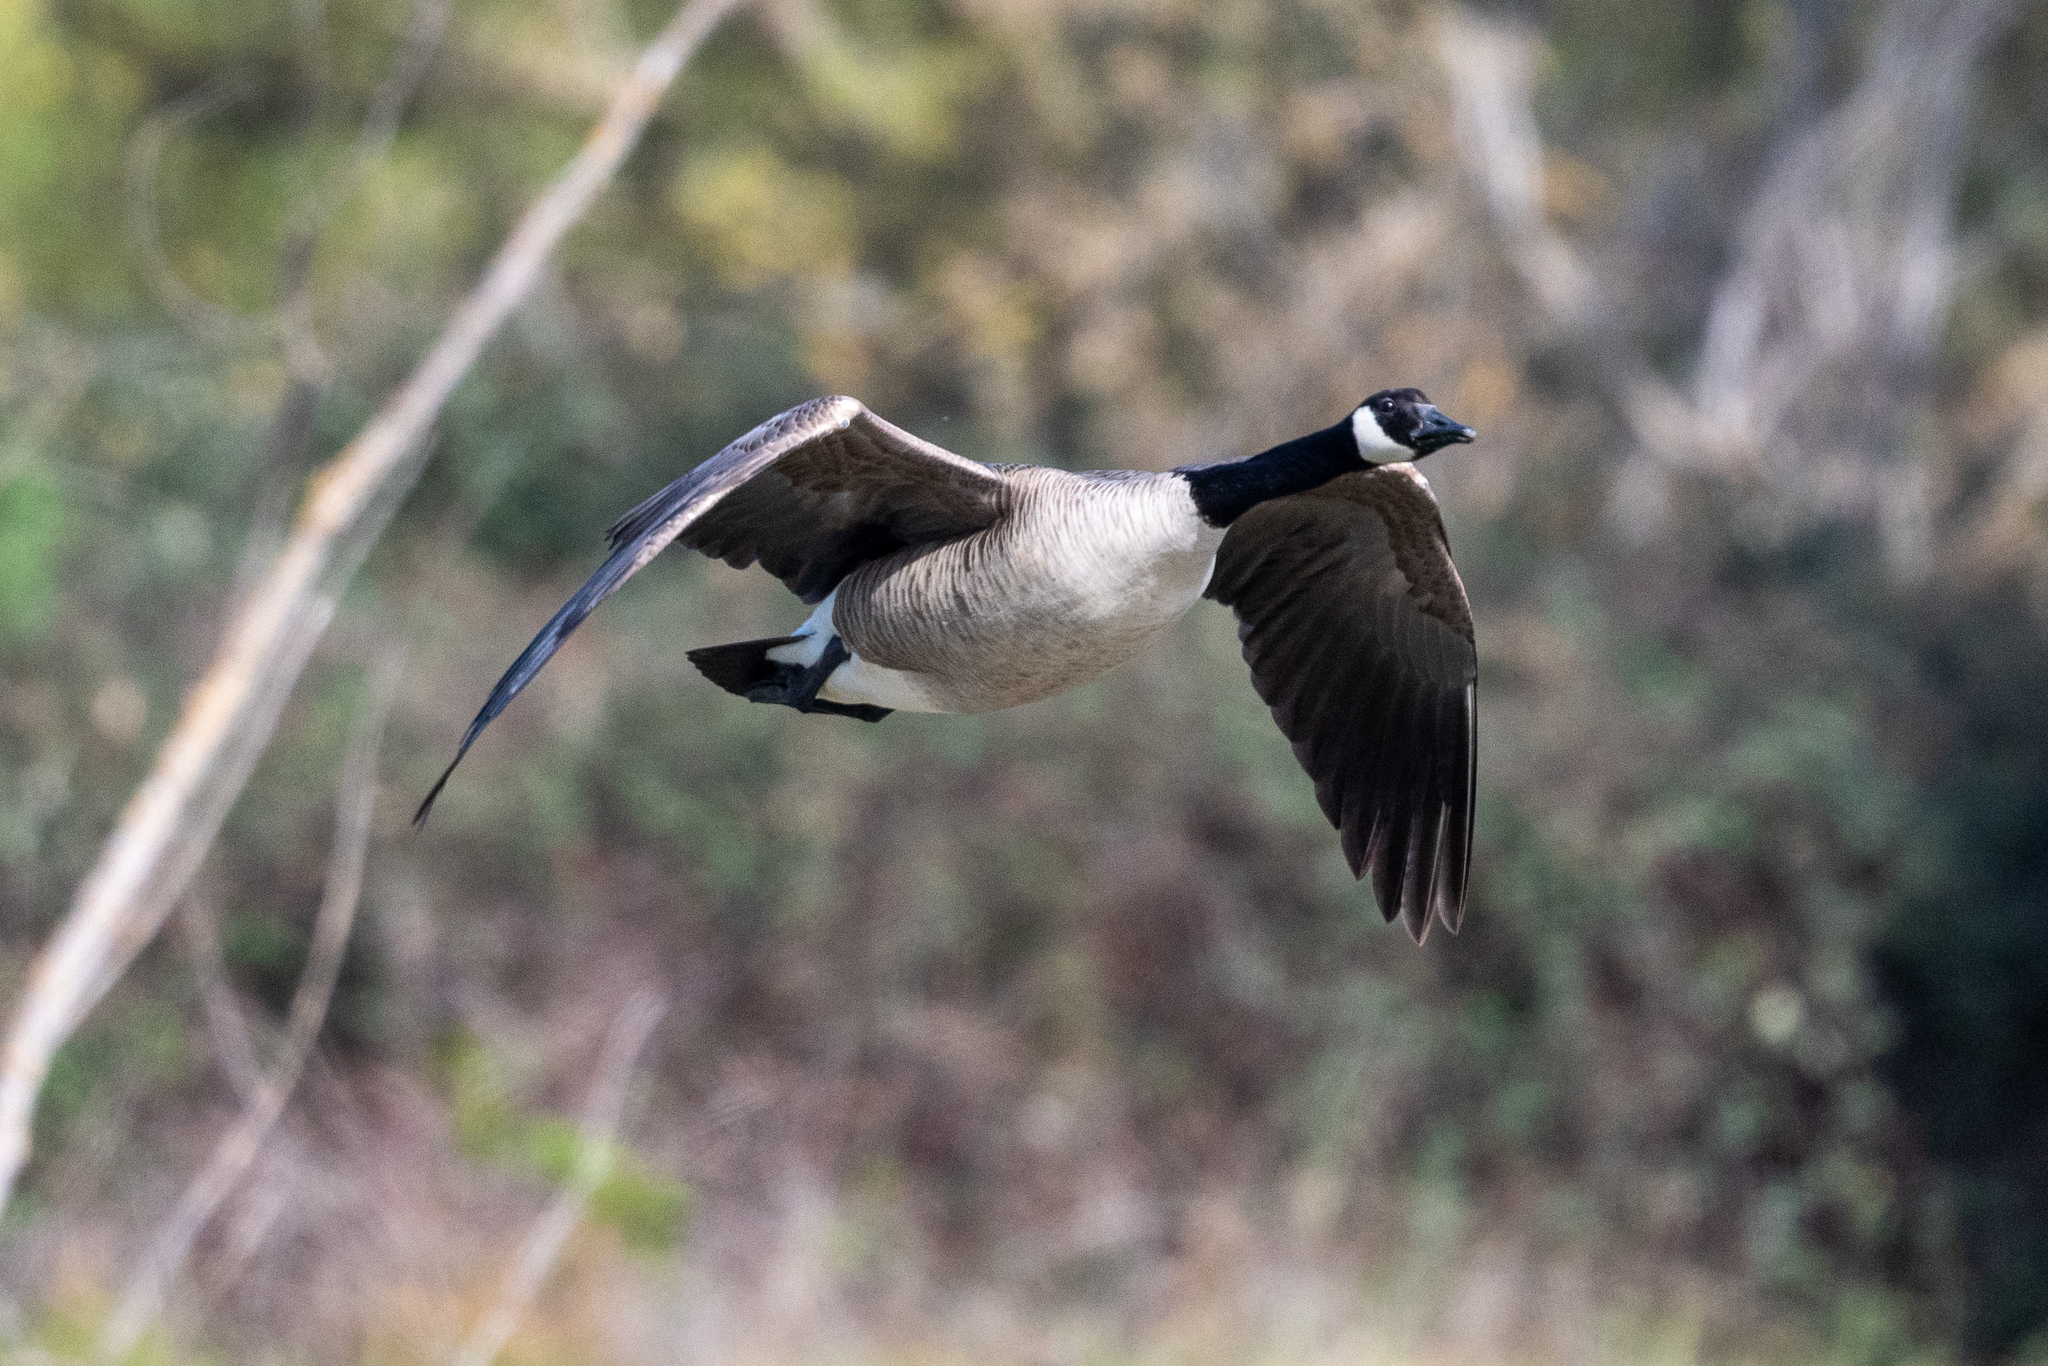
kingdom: Animalia
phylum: Chordata
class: Aves
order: Anseriformes
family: Anatidae
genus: Branta
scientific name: Branta canadensis
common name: Canada goose
